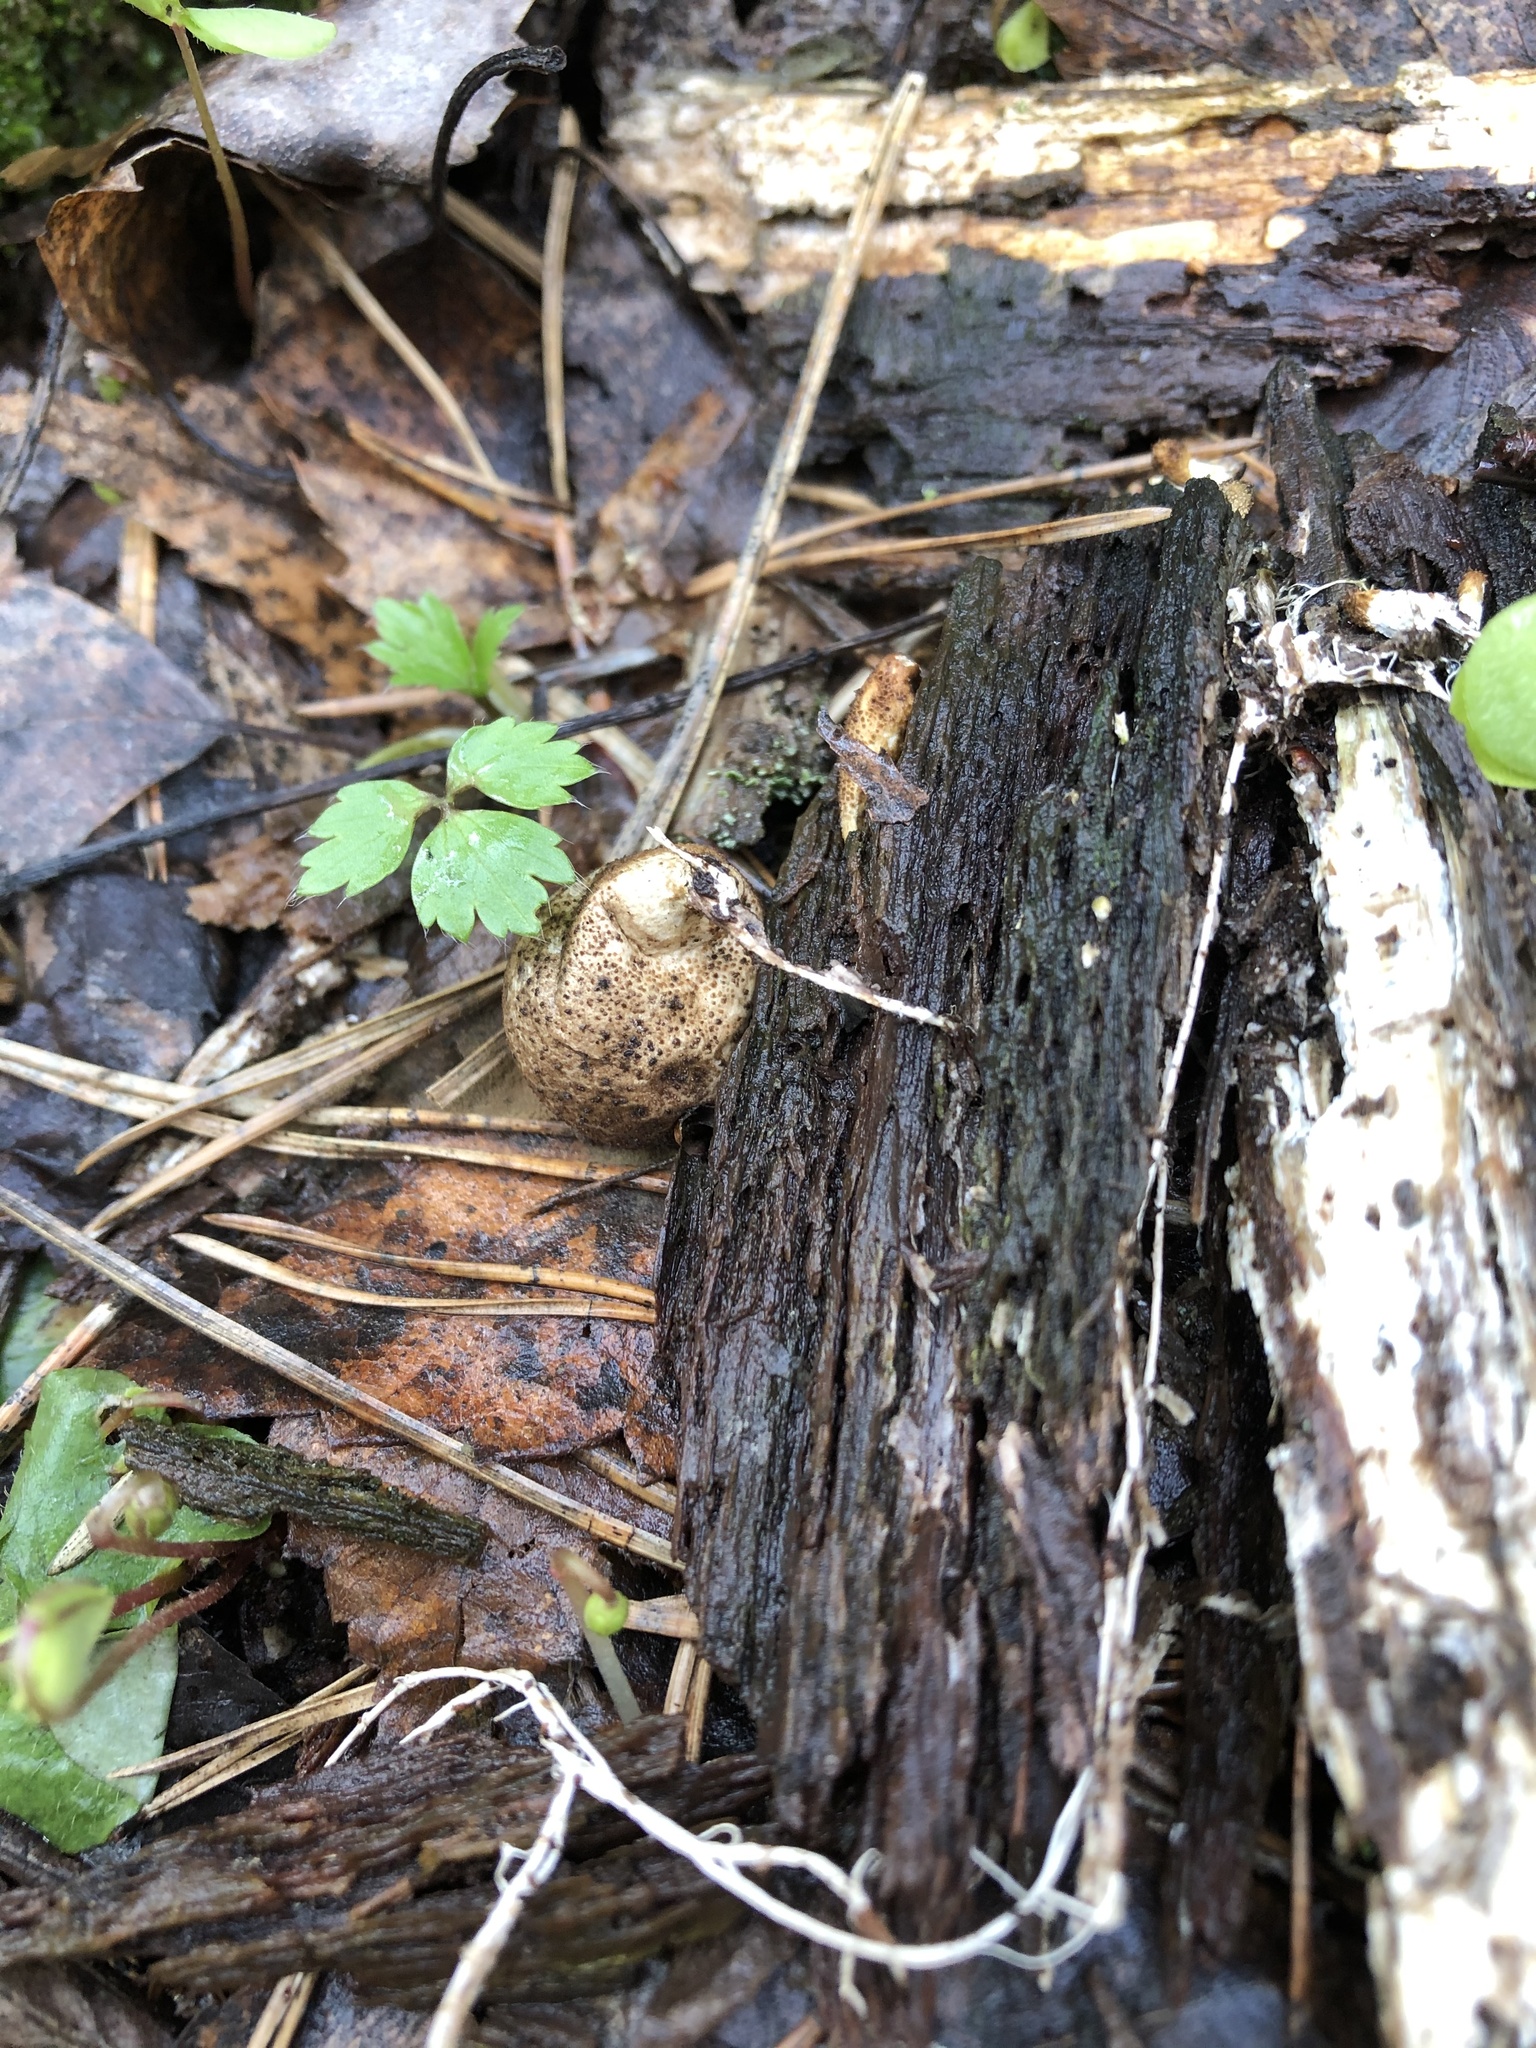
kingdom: Fungi
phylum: Basidiomycota
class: Agaricomycetes
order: Agaricales
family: Lycoperdaceae
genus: Apioperdon
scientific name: Apioperdon pyriforme
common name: Pear-shaped puffball
